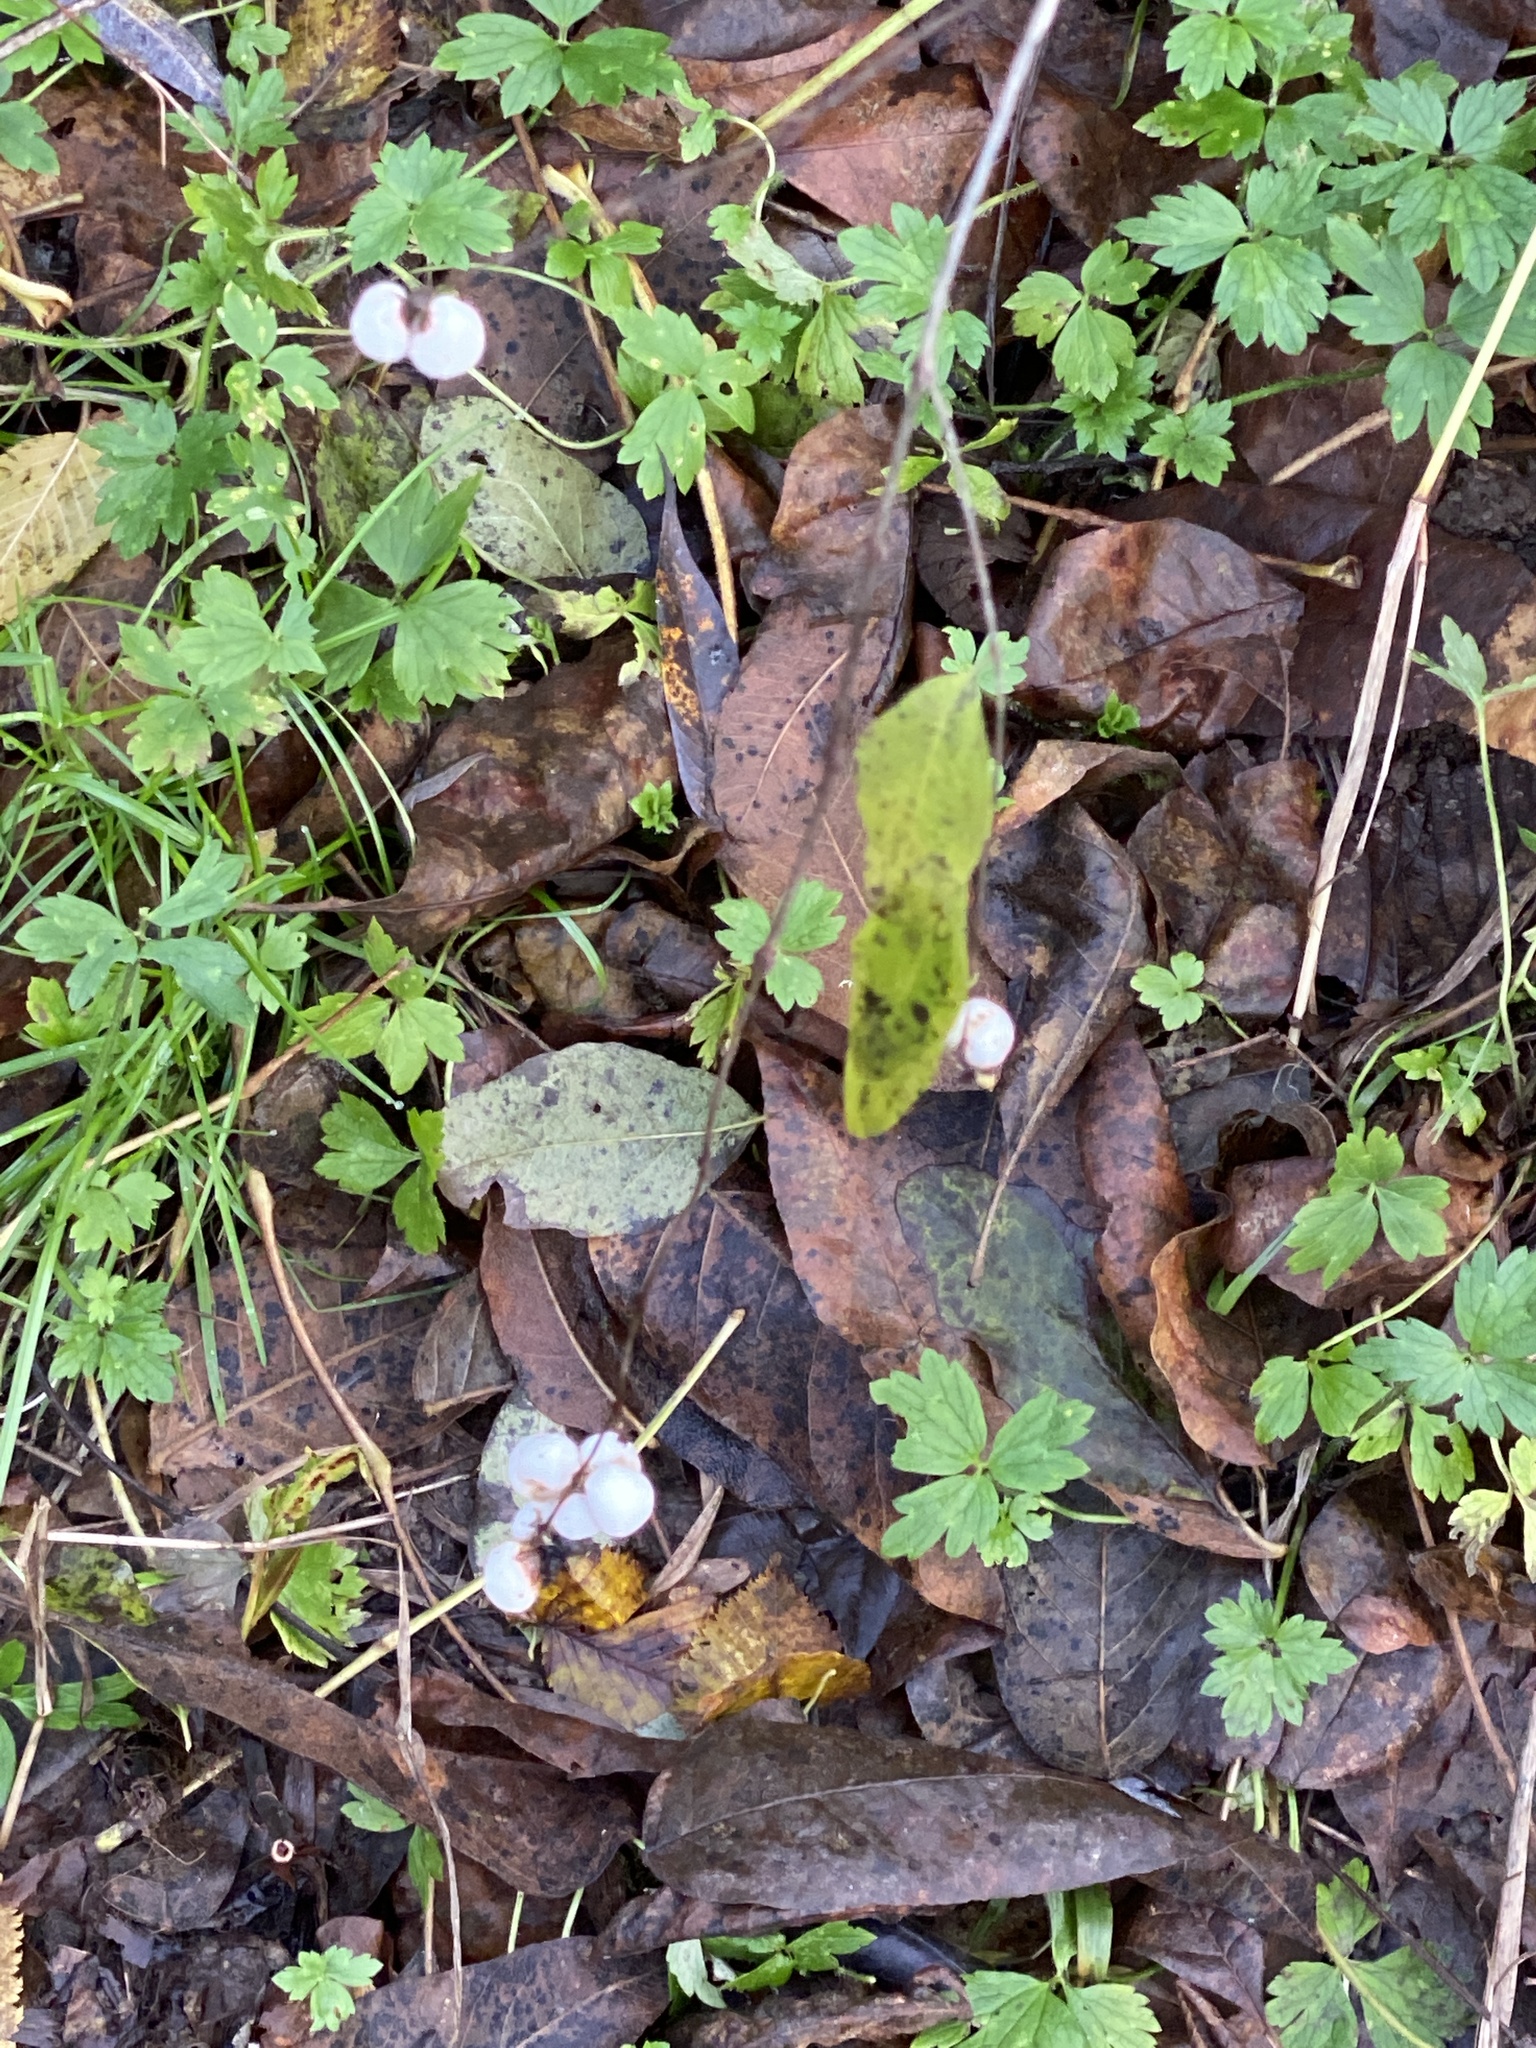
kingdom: Plantae
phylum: Tracheophyta
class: Magnoliopsida
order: Dipsacales
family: Caprifoliaceae
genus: Symphoricarpos
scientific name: Symphoricarpos albus
